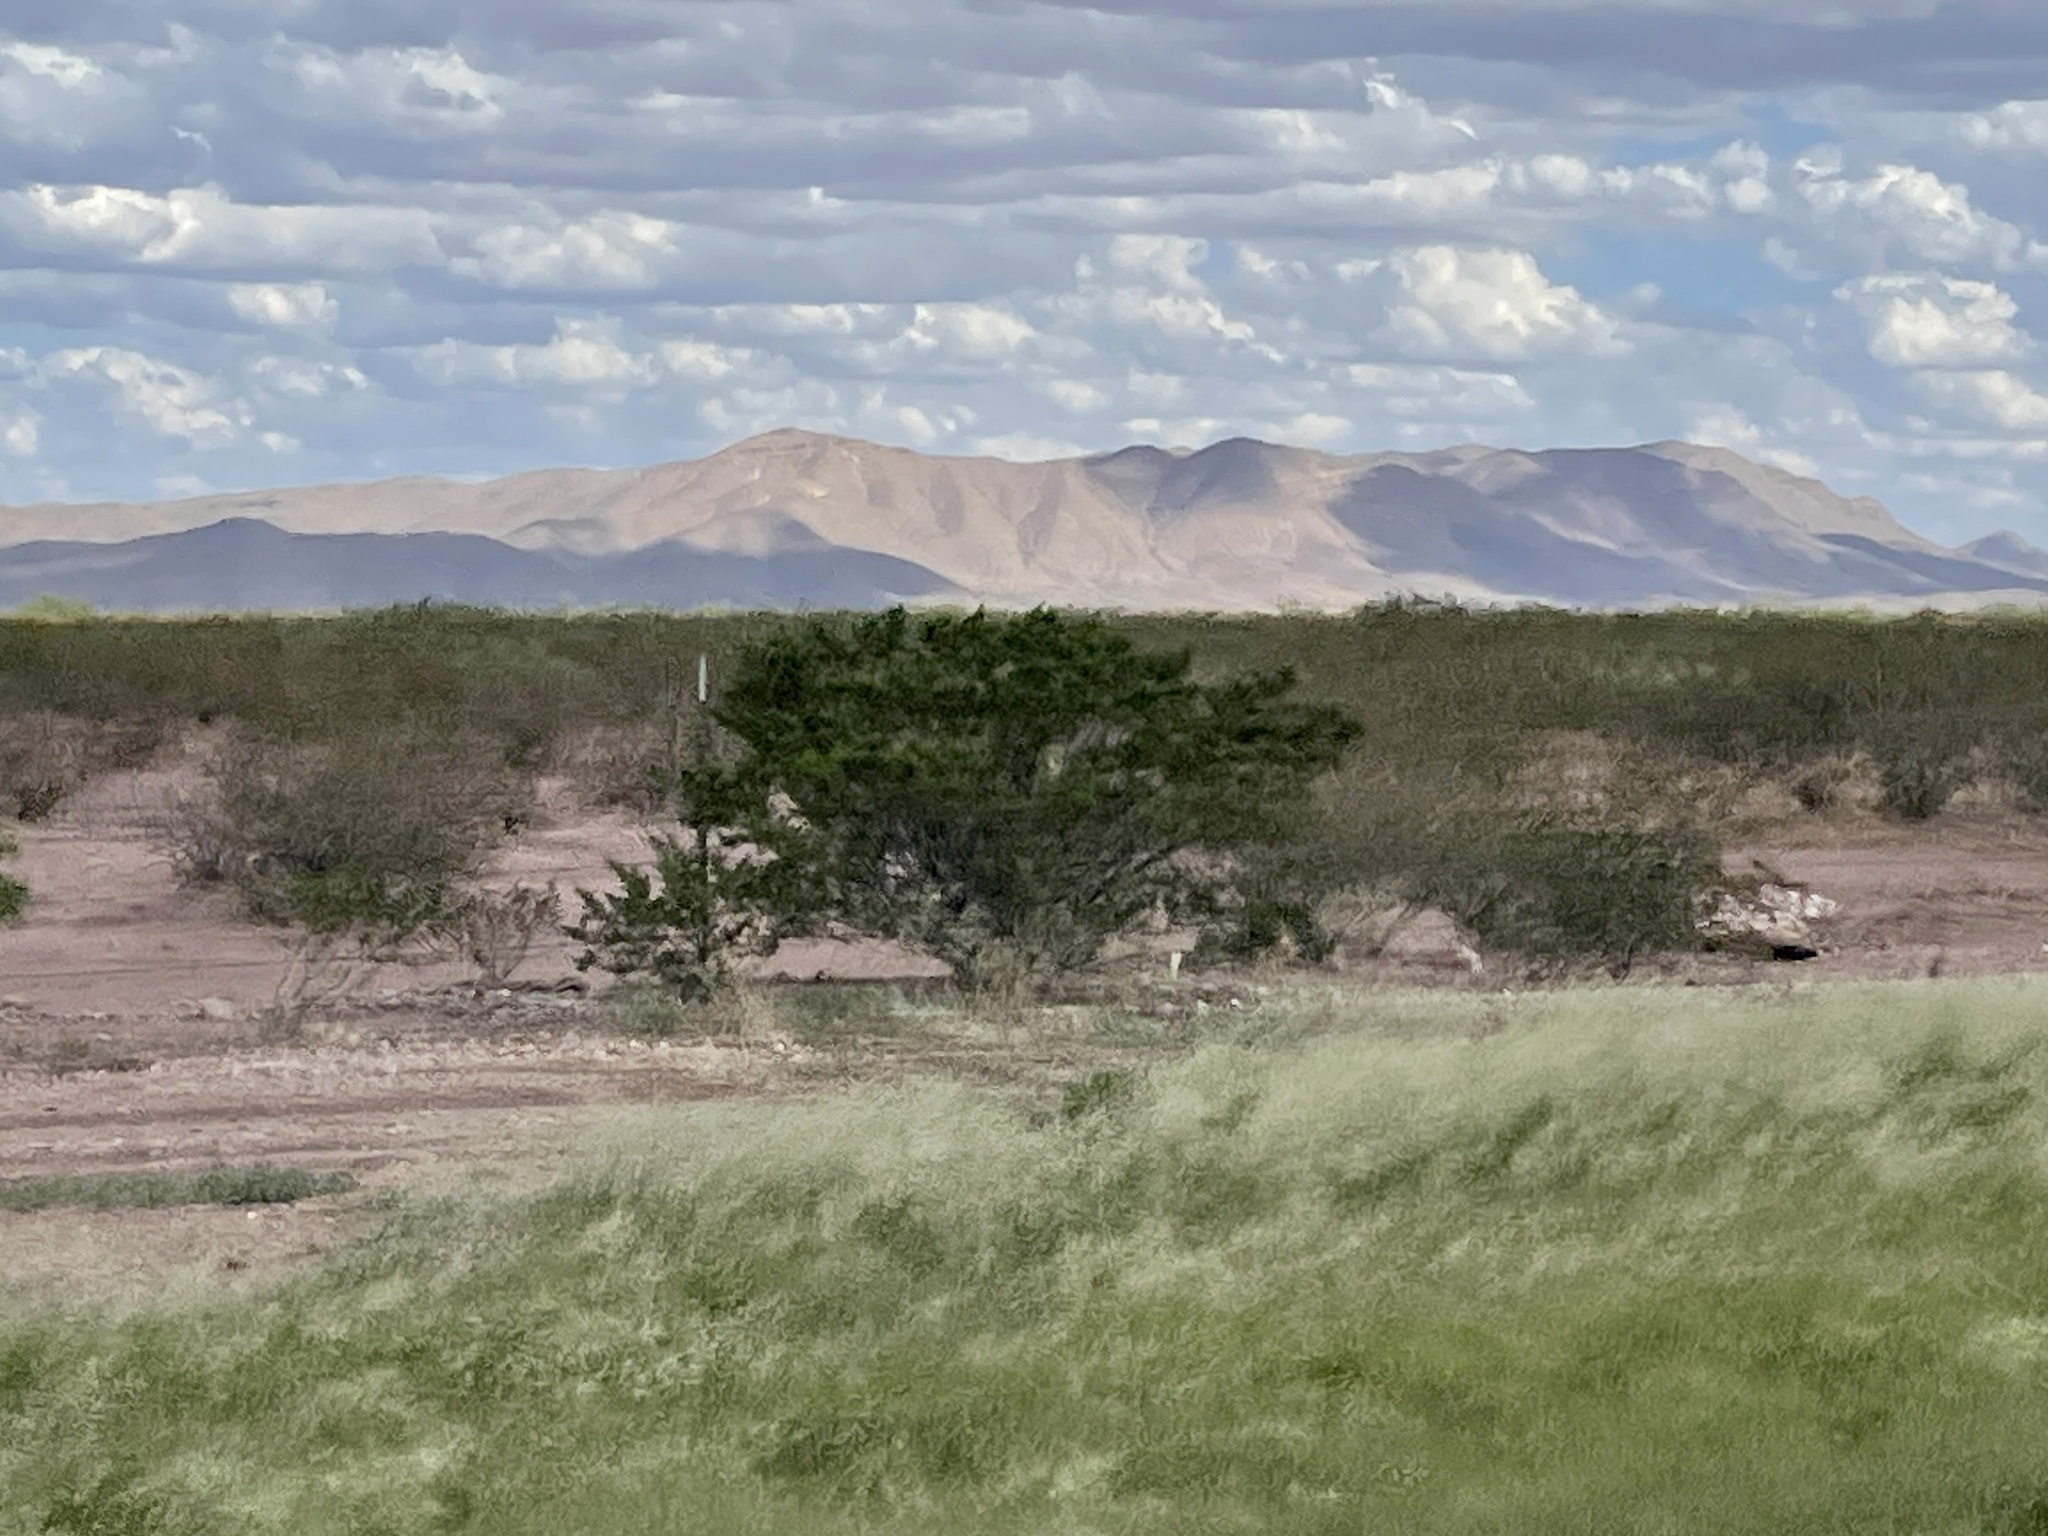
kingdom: Plantae
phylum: Tracheophyta
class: Magnoliopsida
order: Zygophyllales
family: Zygophyllaceae
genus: Larrea
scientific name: Larrea tridentata
